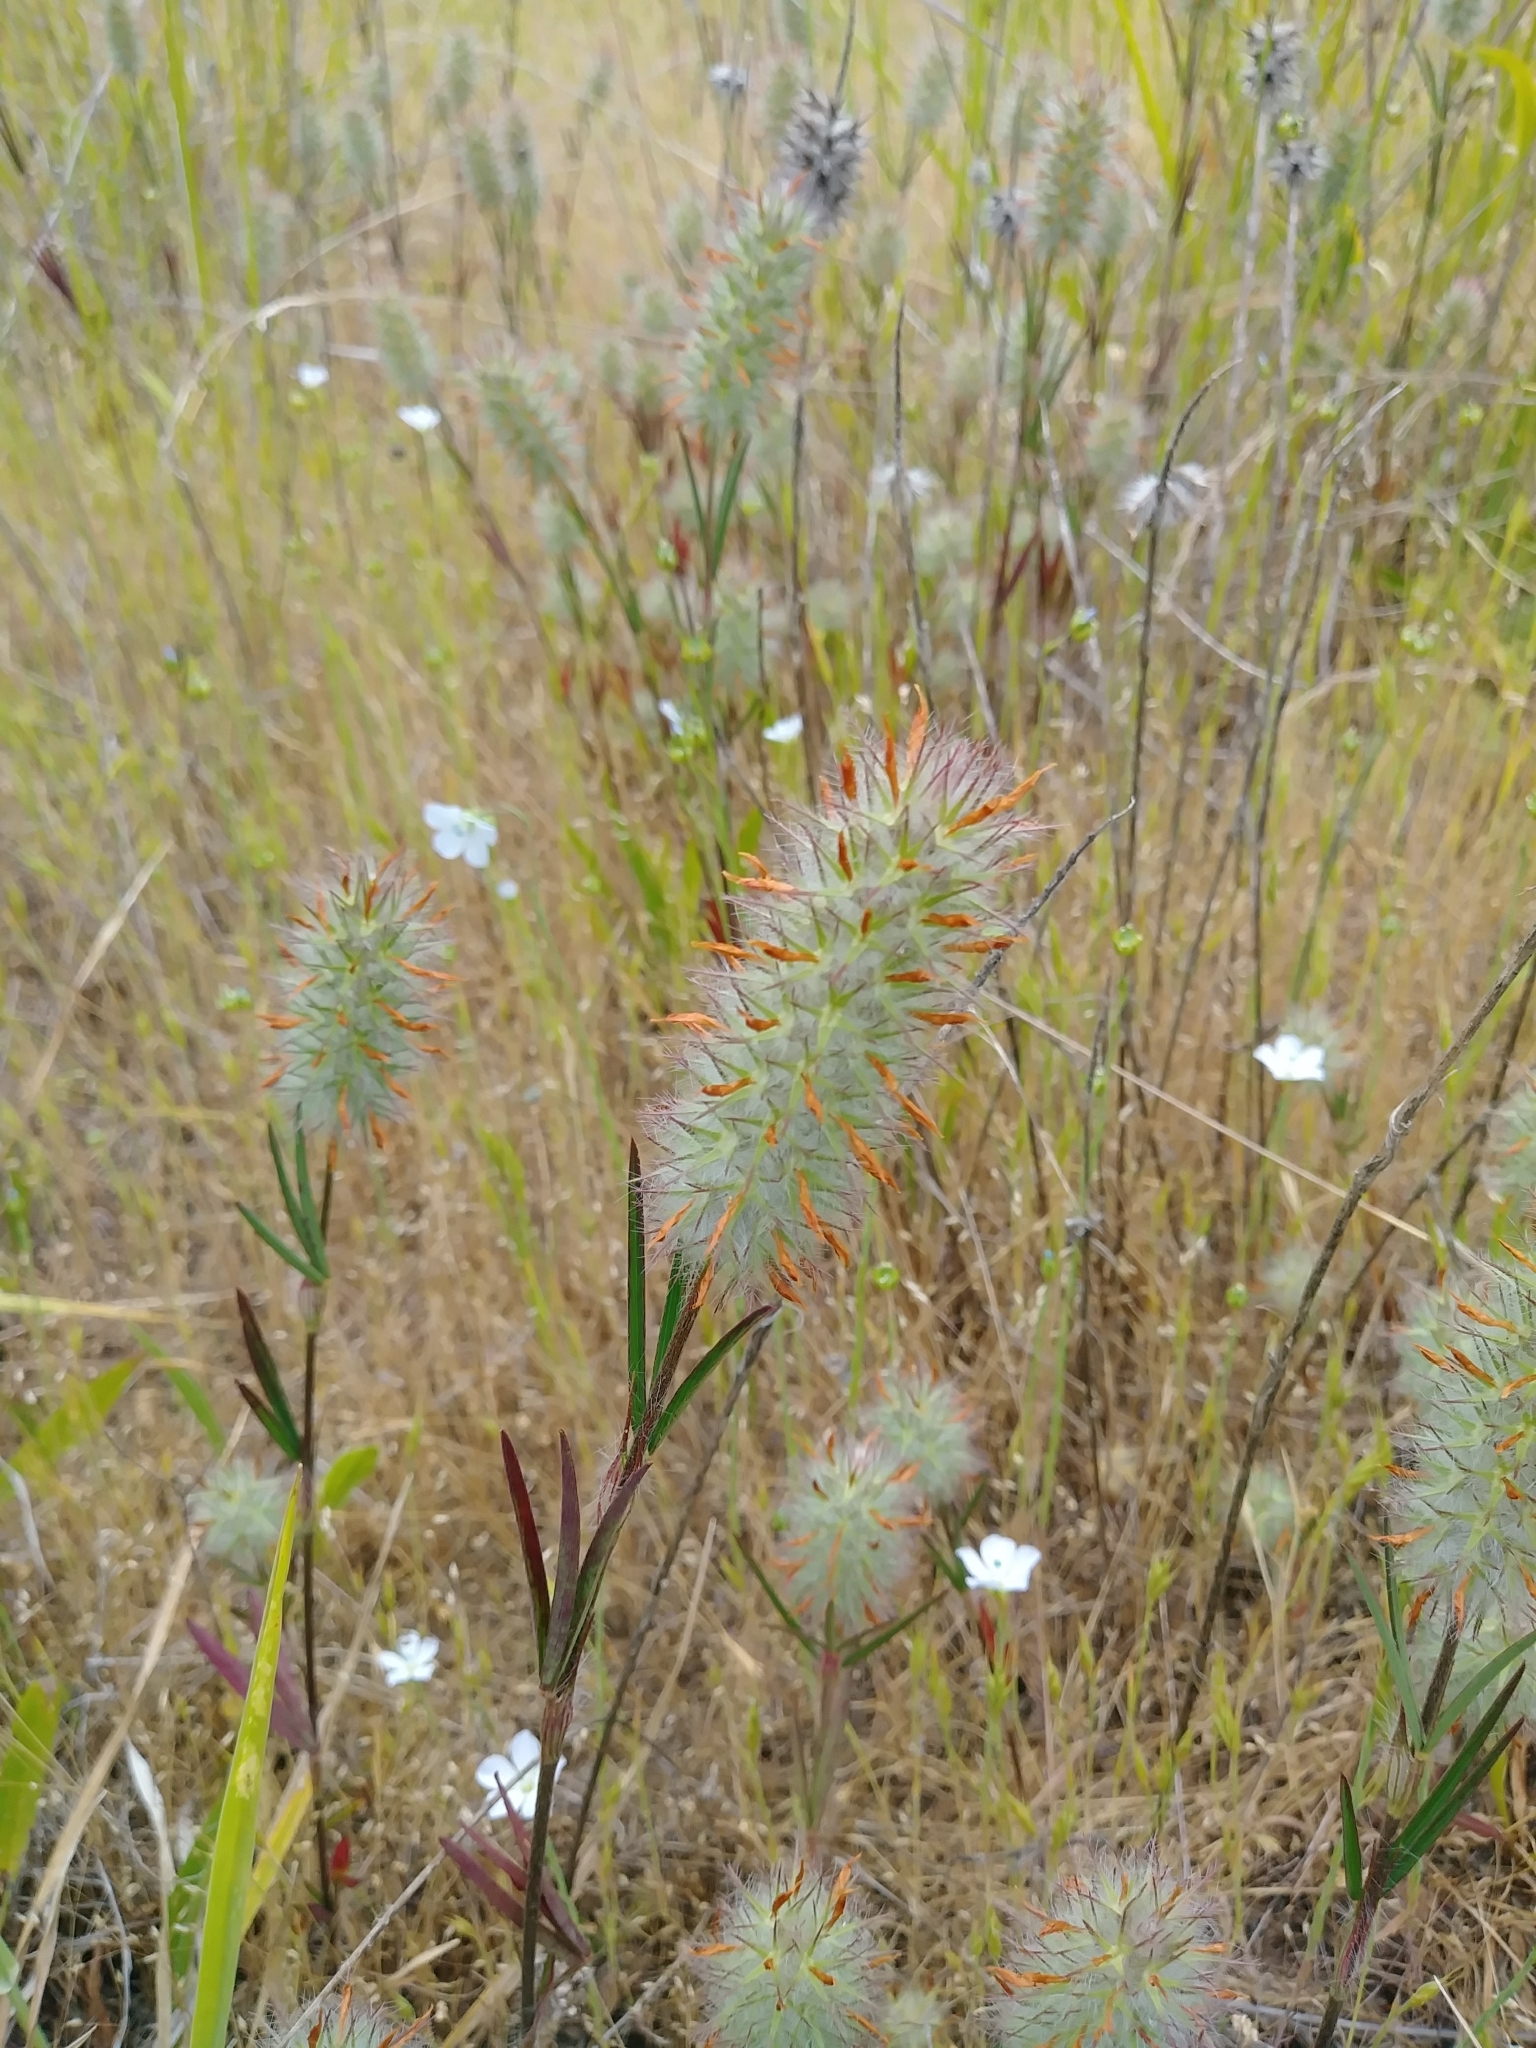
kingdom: Plantae
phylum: Tracheophyta
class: Magnoliopsida
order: Fabales
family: Fabaceae
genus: Trifolium
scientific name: Trifolium angustifolium
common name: Narrow clover
